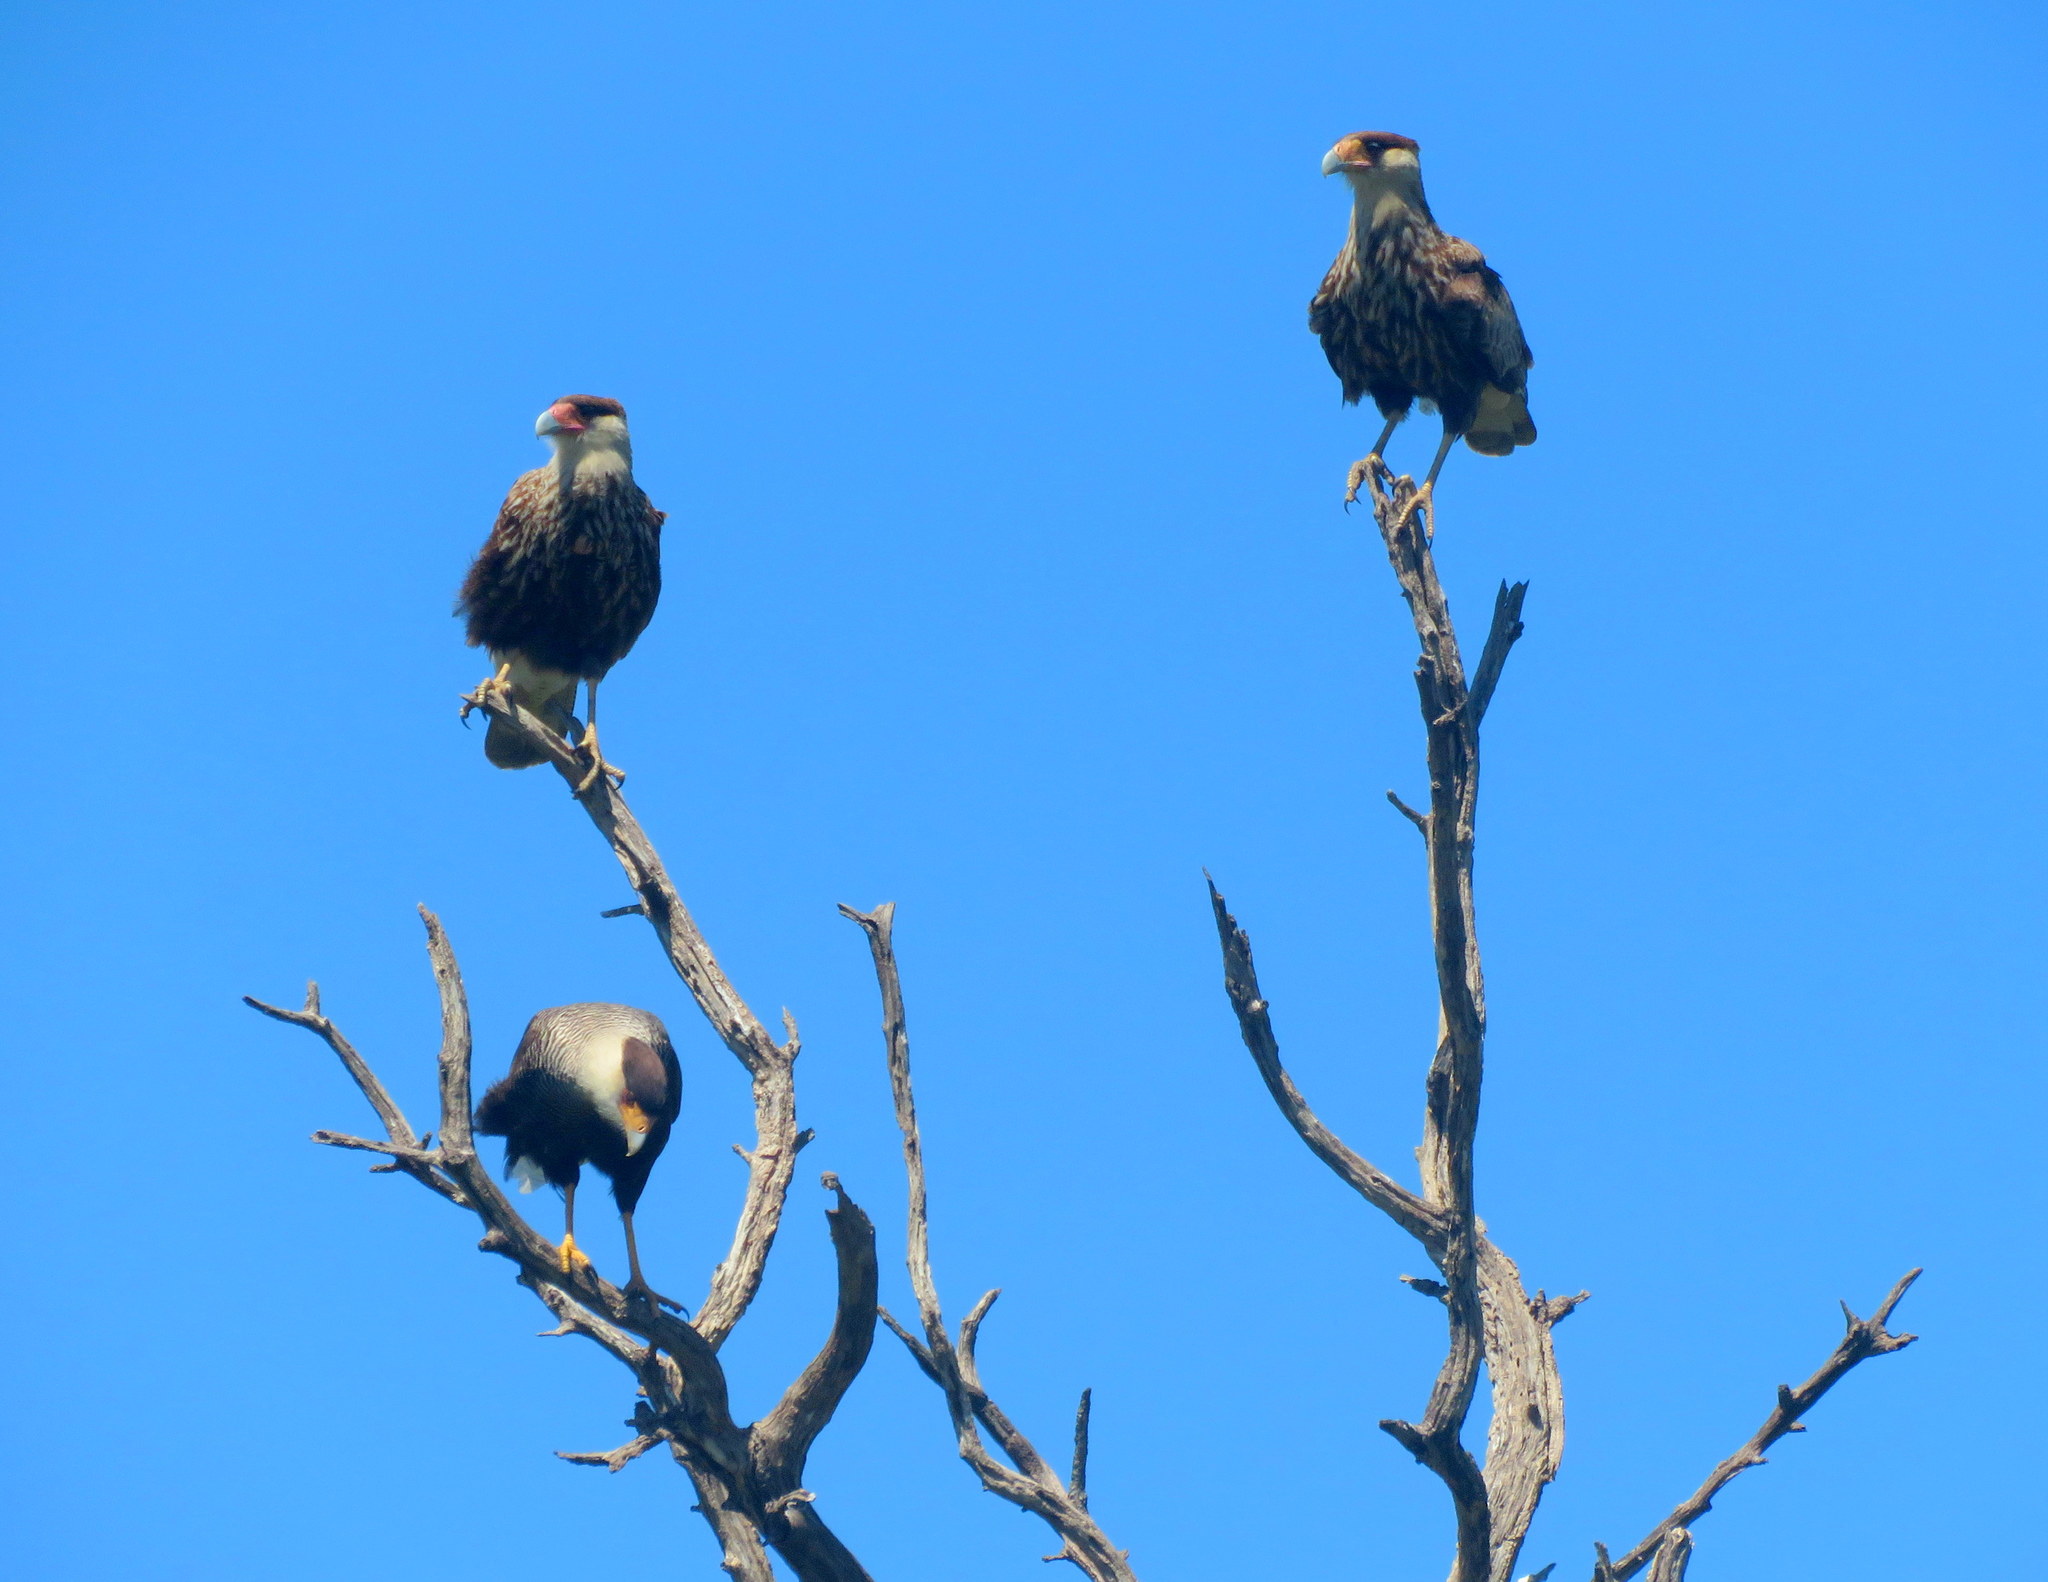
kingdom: Animalia
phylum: Chordata
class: Aves
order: Falconiformes
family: Falconidae
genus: Caracara
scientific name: Caracara plancus
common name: Southern caracara
